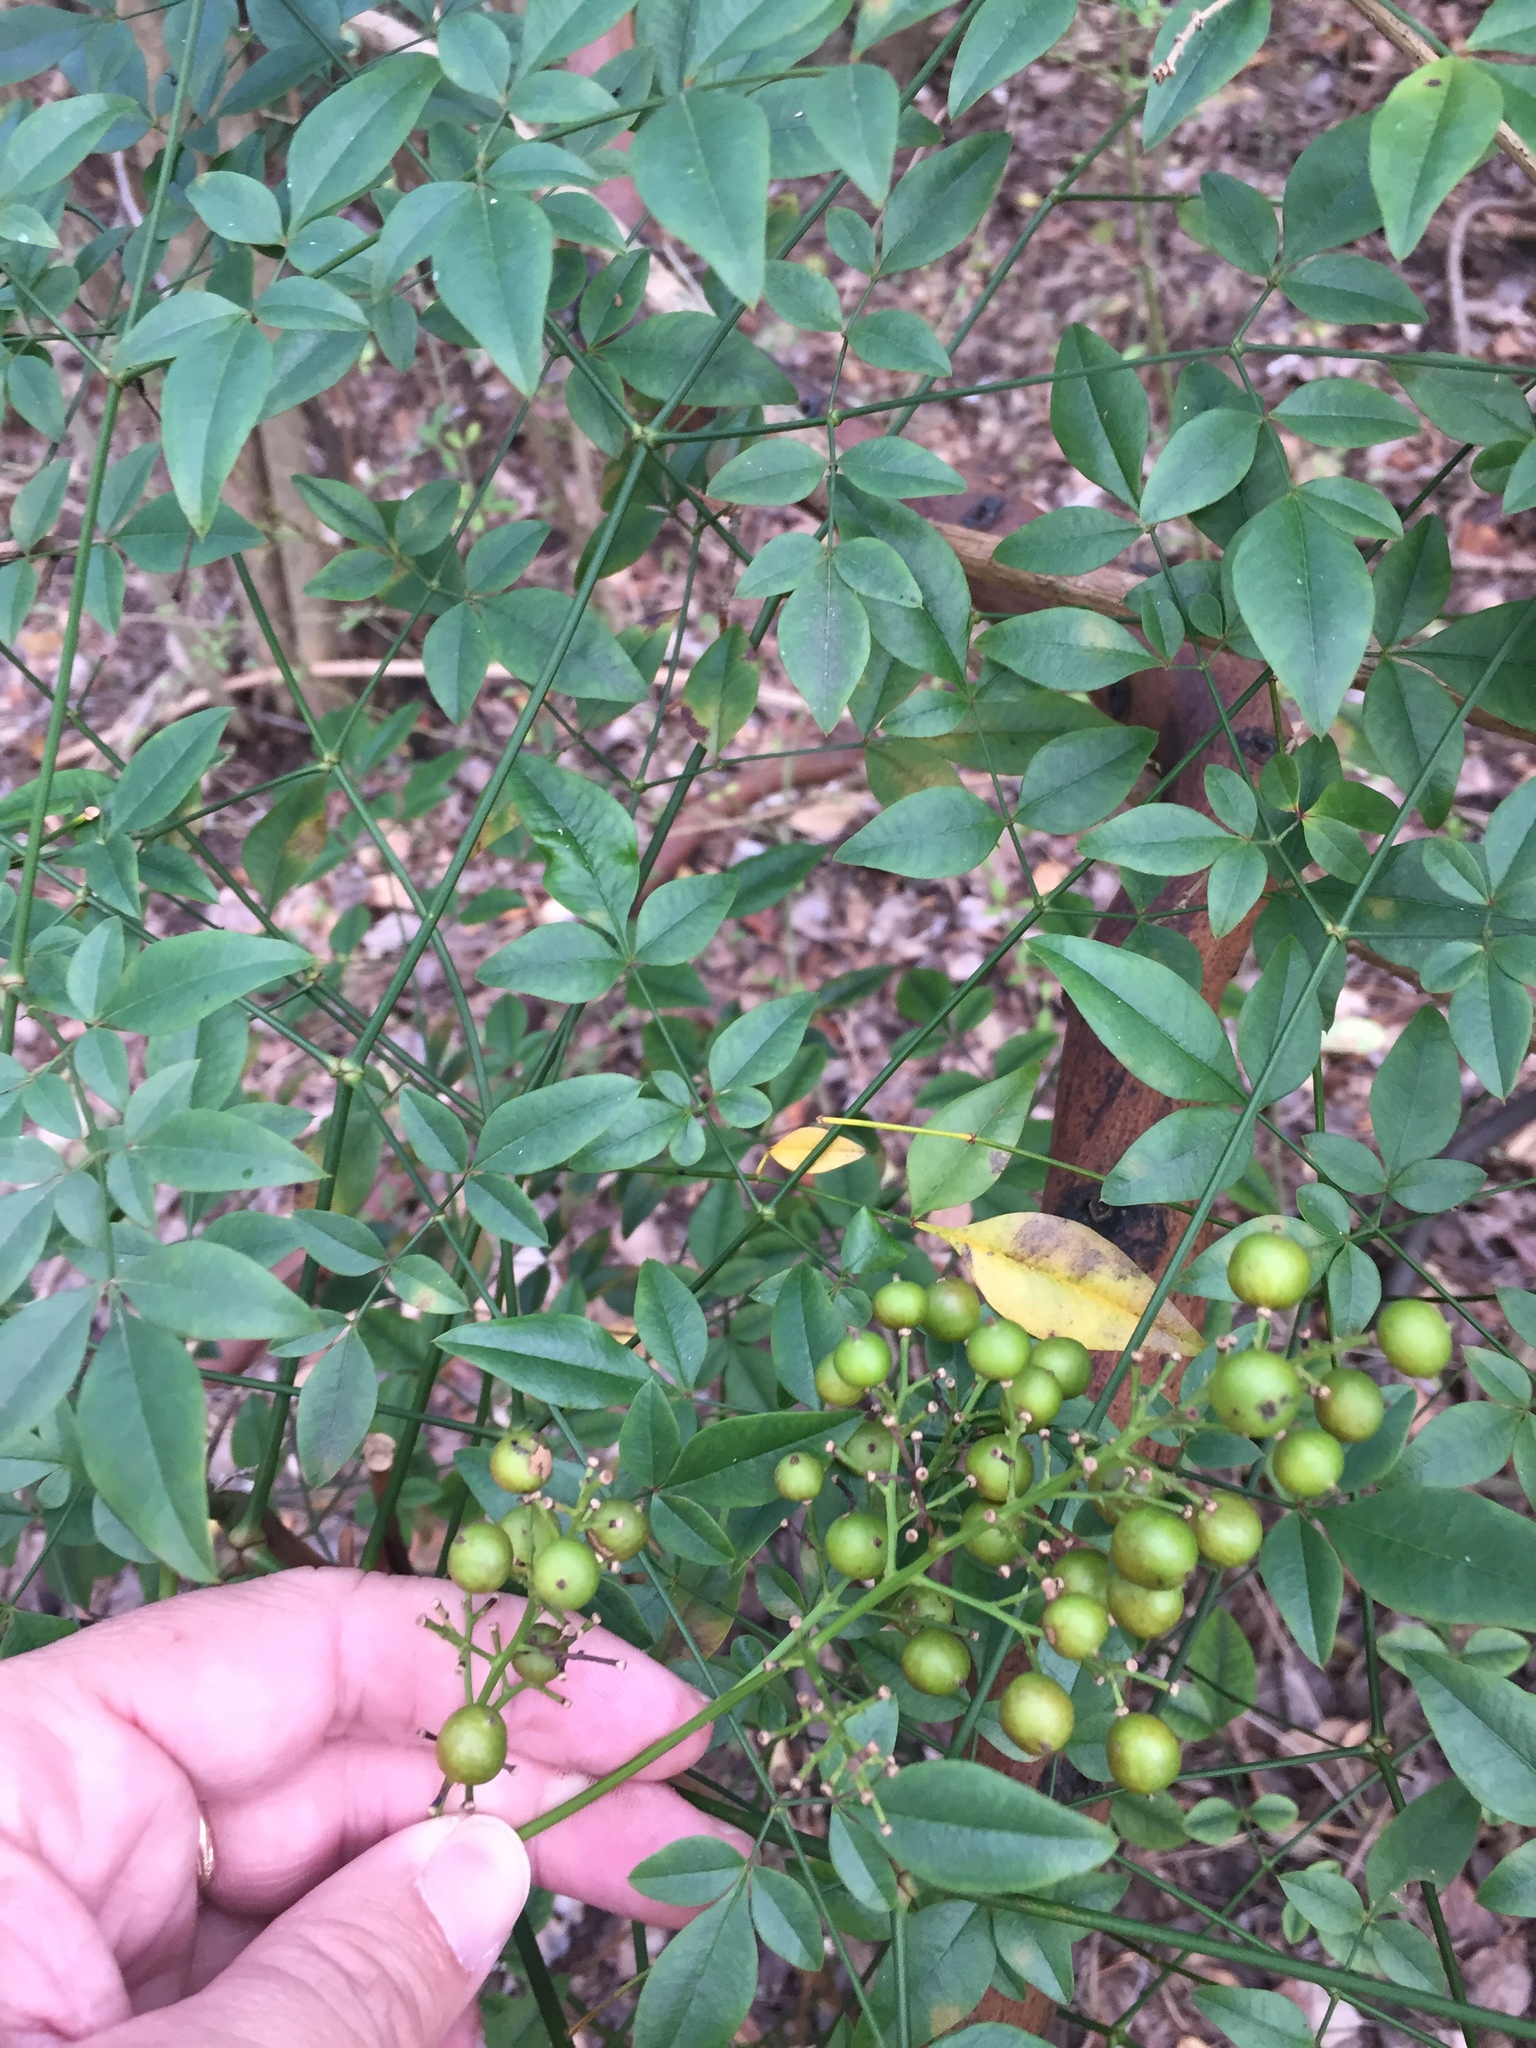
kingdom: Plantae
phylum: Tracheophyta
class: Magnoliopsida
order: Ranunculales
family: Berberidaceae
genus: Nandina
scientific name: Nandina domestica
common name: Sacred bamboo
